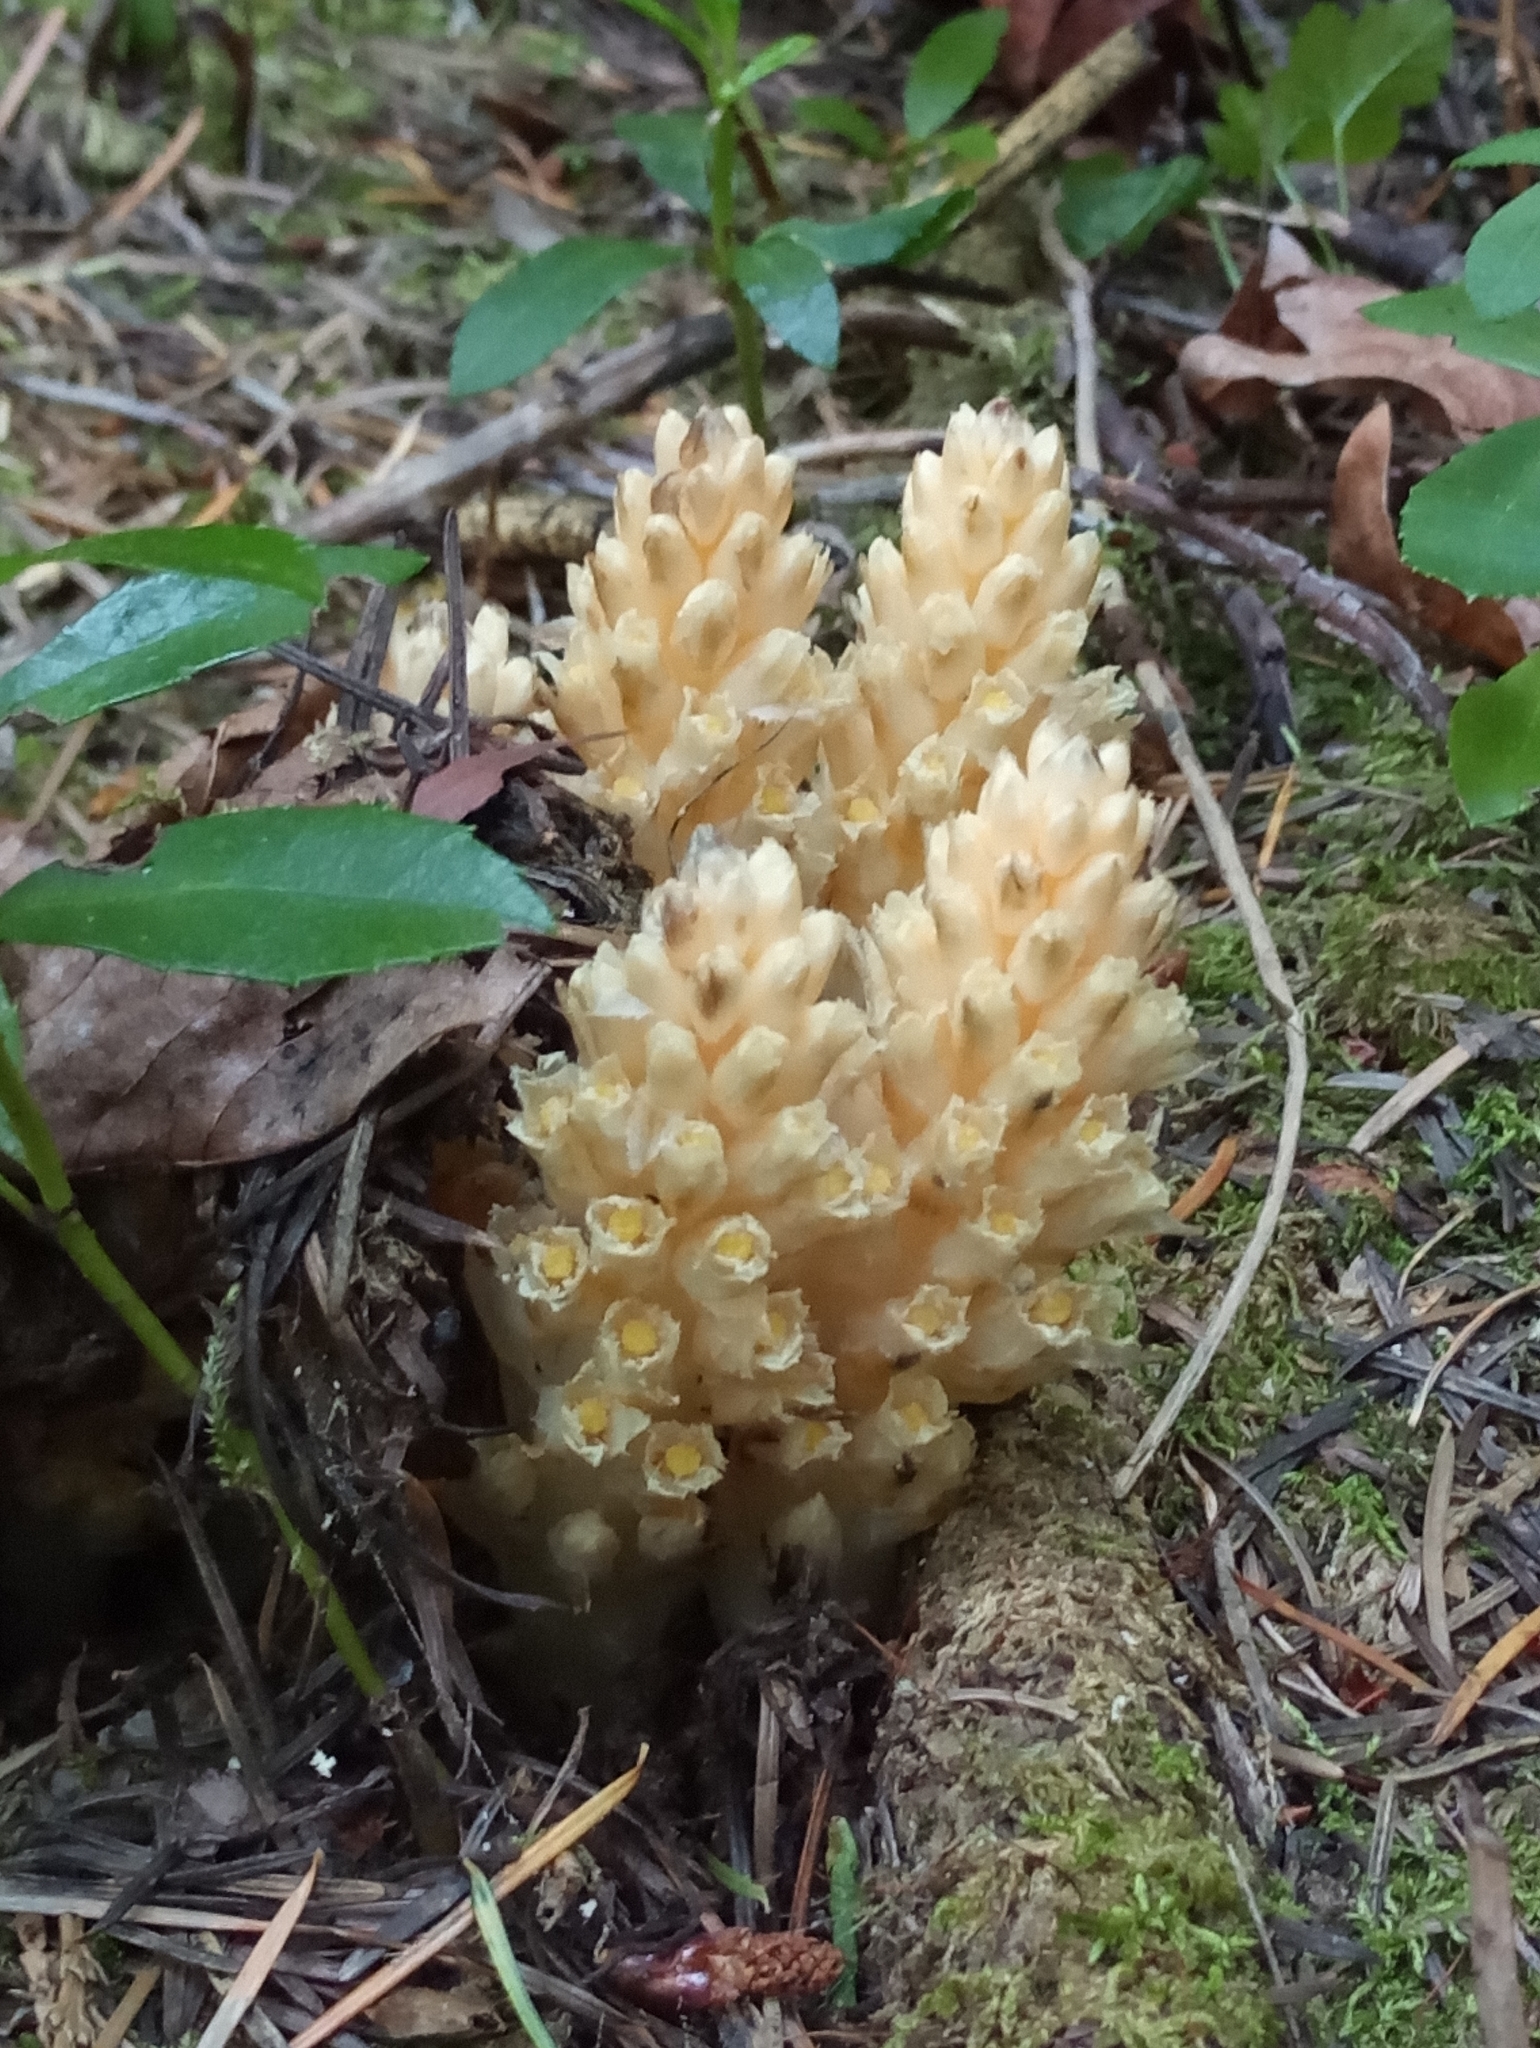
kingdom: Plantae
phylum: Tracheophyta
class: Magnoliopsida
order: Ericales
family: Ericaceae
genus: Pleuricospora
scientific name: Pleuricospora fimbriolata
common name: Fringed pinesap
